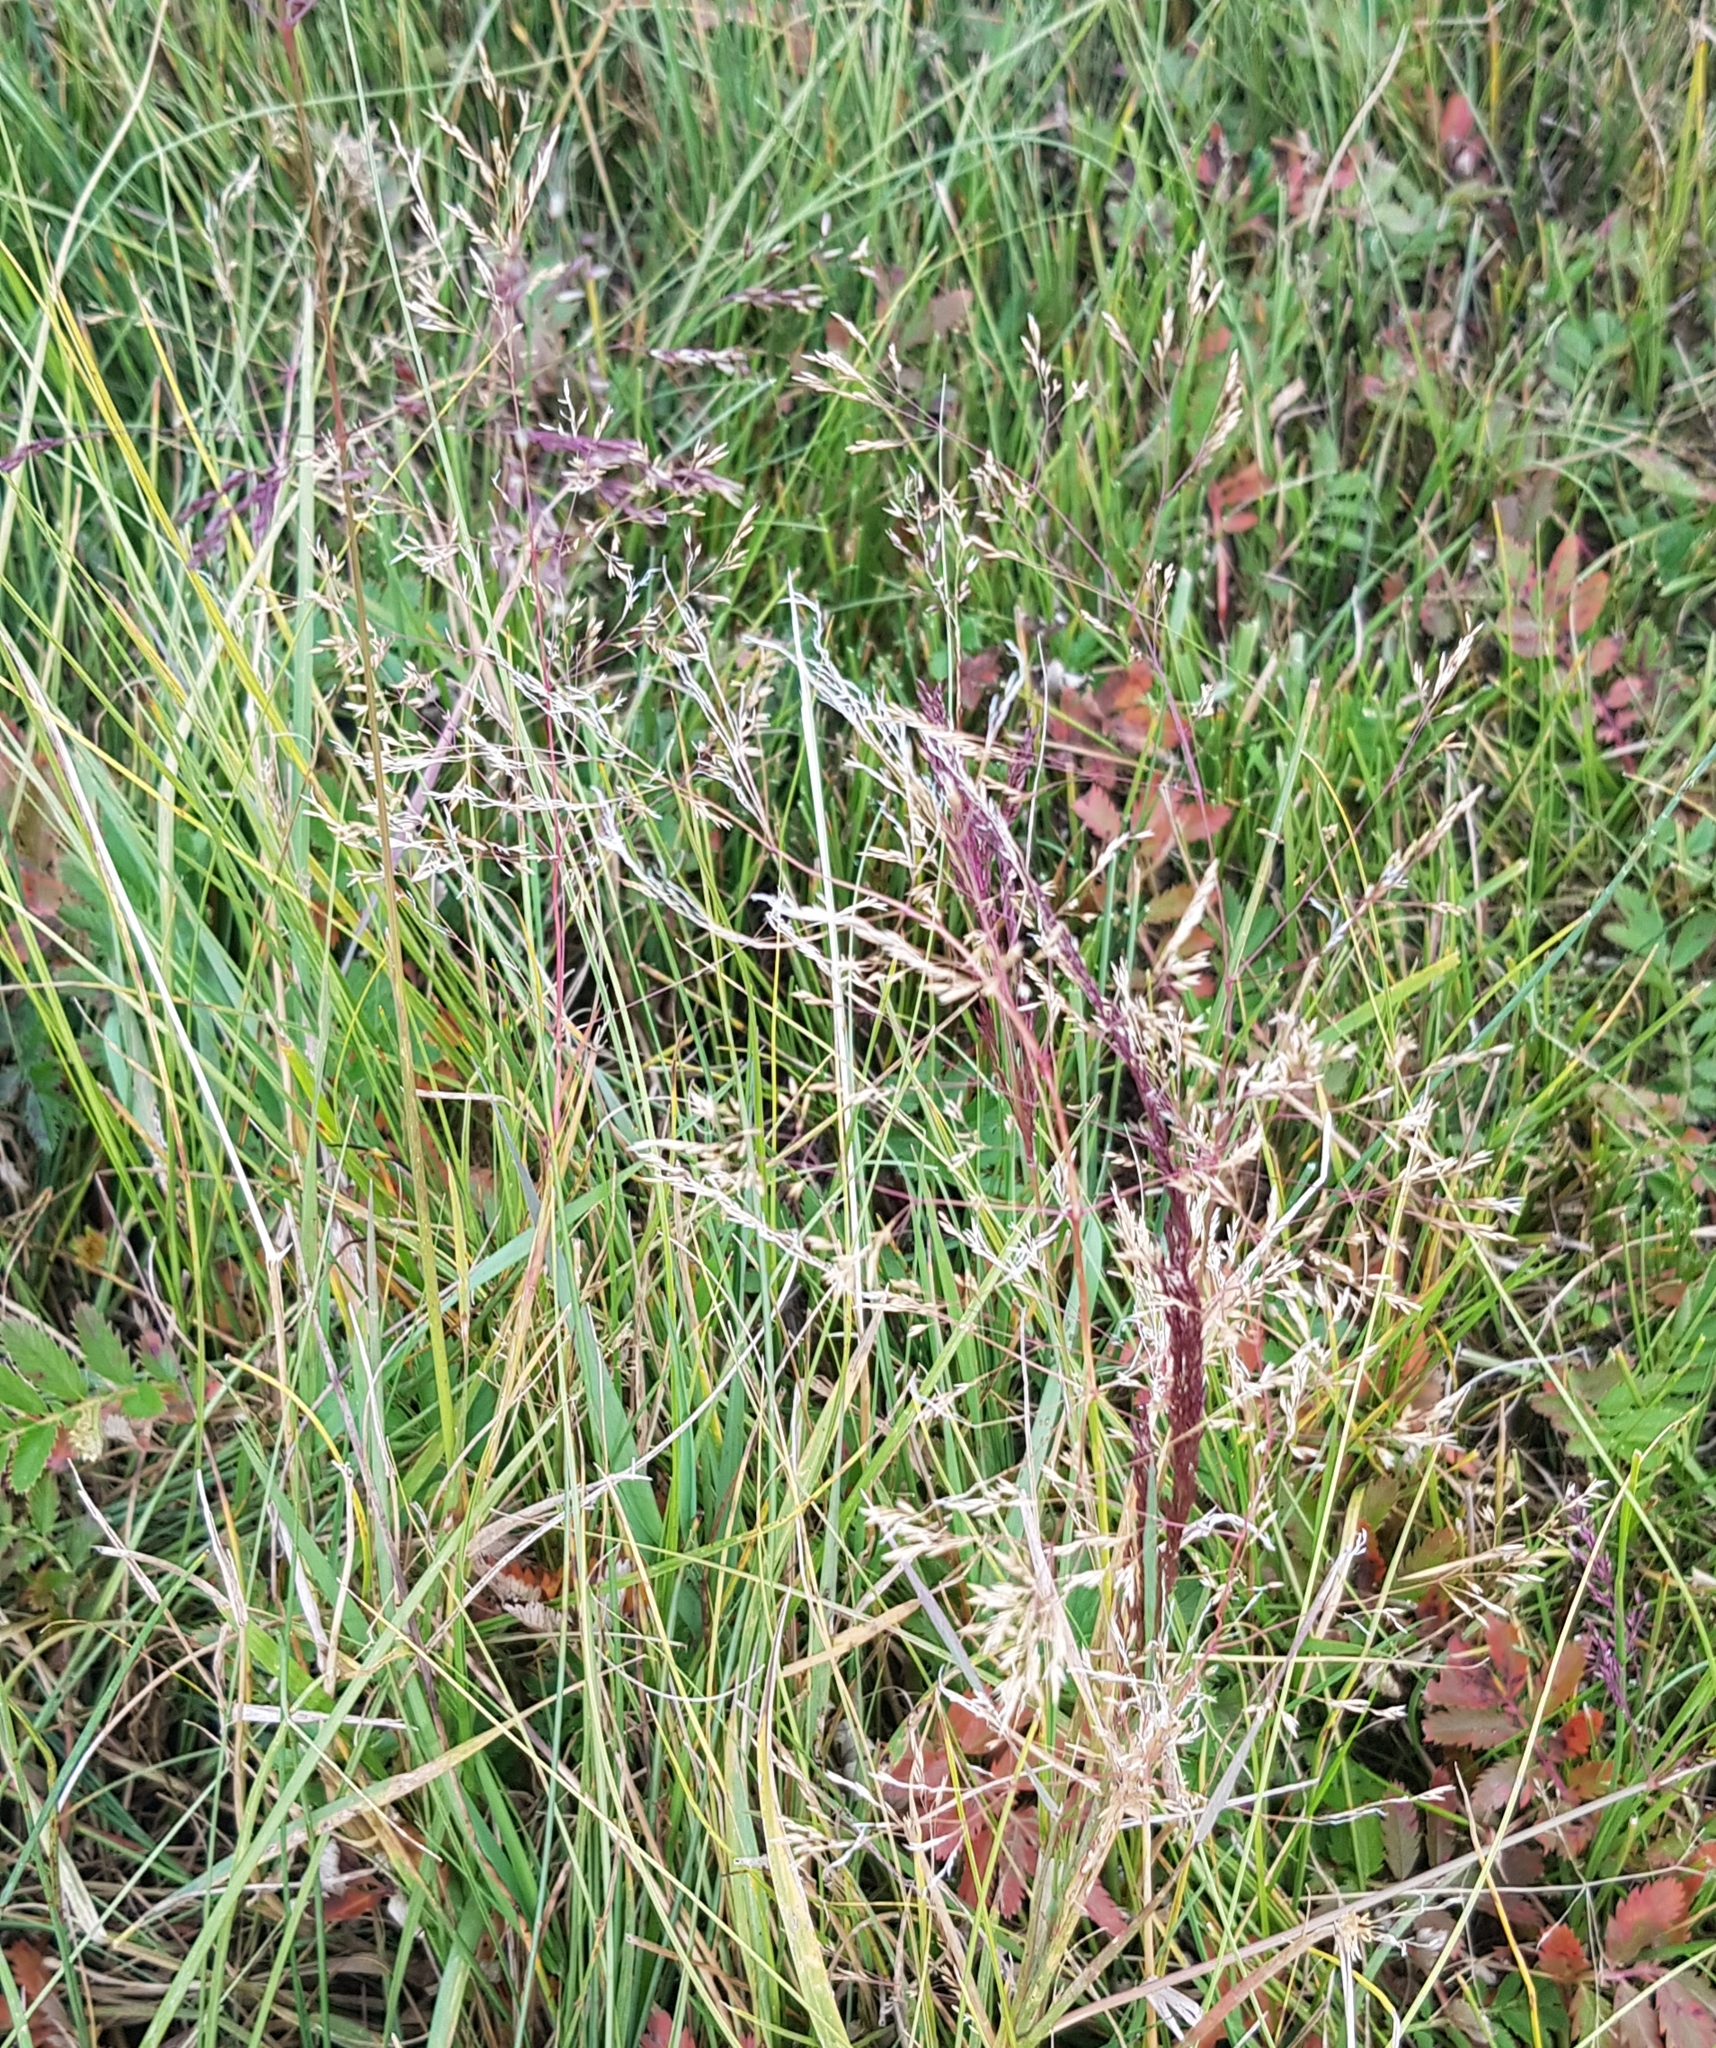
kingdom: Plantae
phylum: Tracheophyta
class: Liliopsida
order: Poales
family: Poaceae
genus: Poa
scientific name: Poa attenuata
